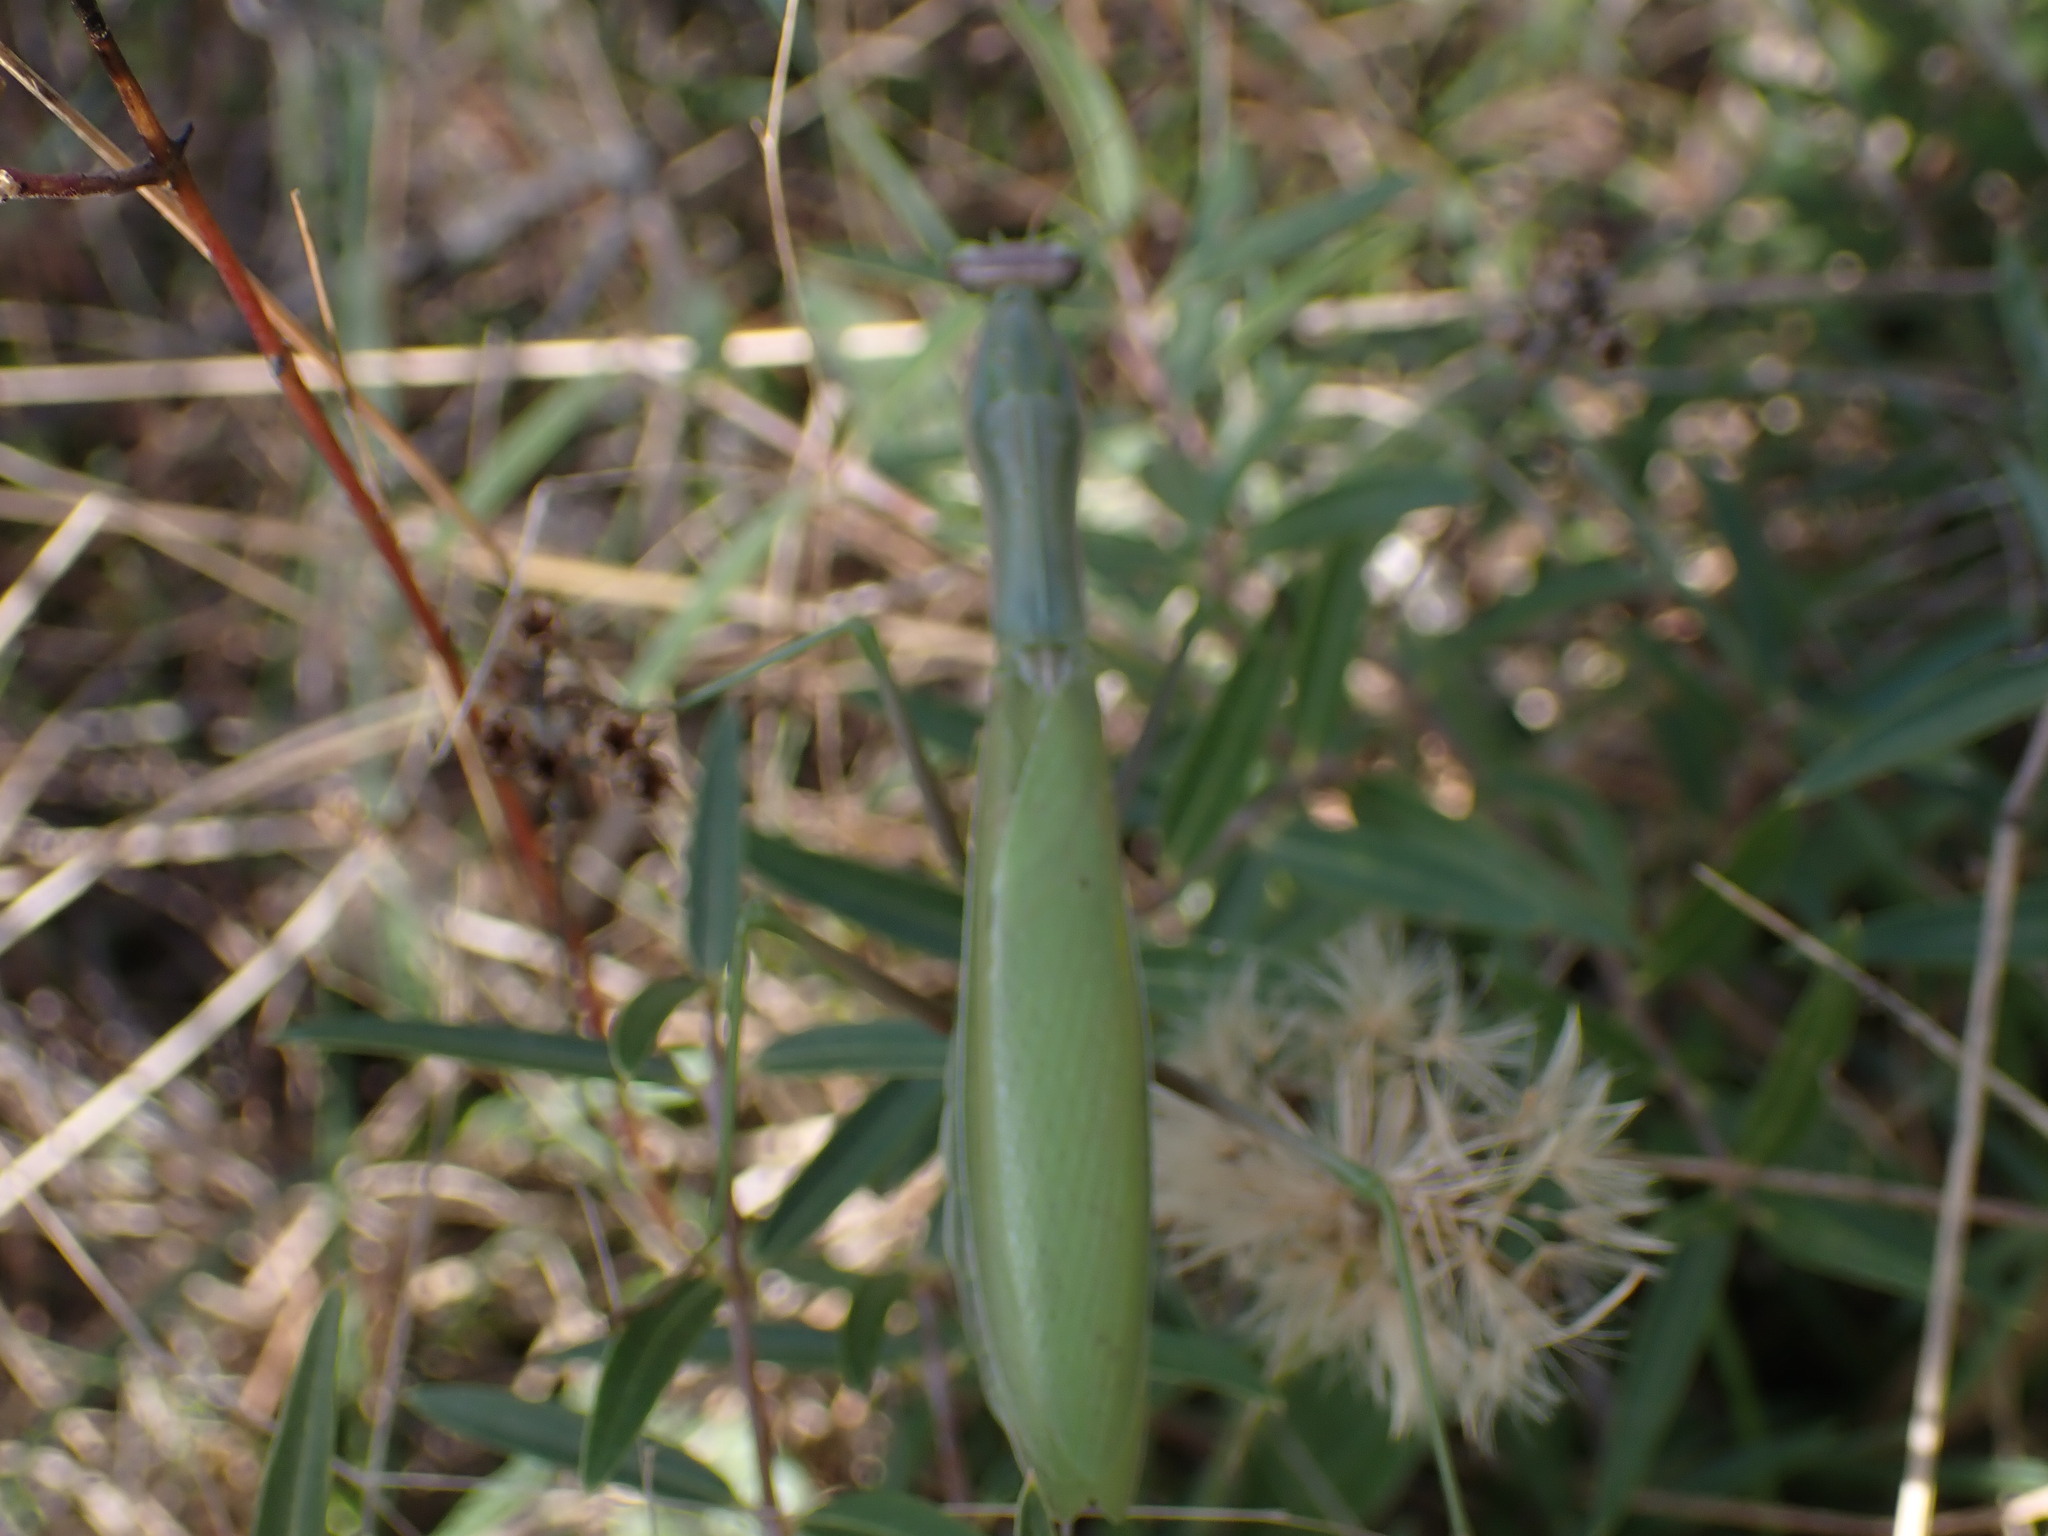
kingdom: Animalia
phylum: Arthropoda
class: Insecta
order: Mantodea
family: Mantidae
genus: Mantis
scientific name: Mantis religiosa
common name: Praying mantis
